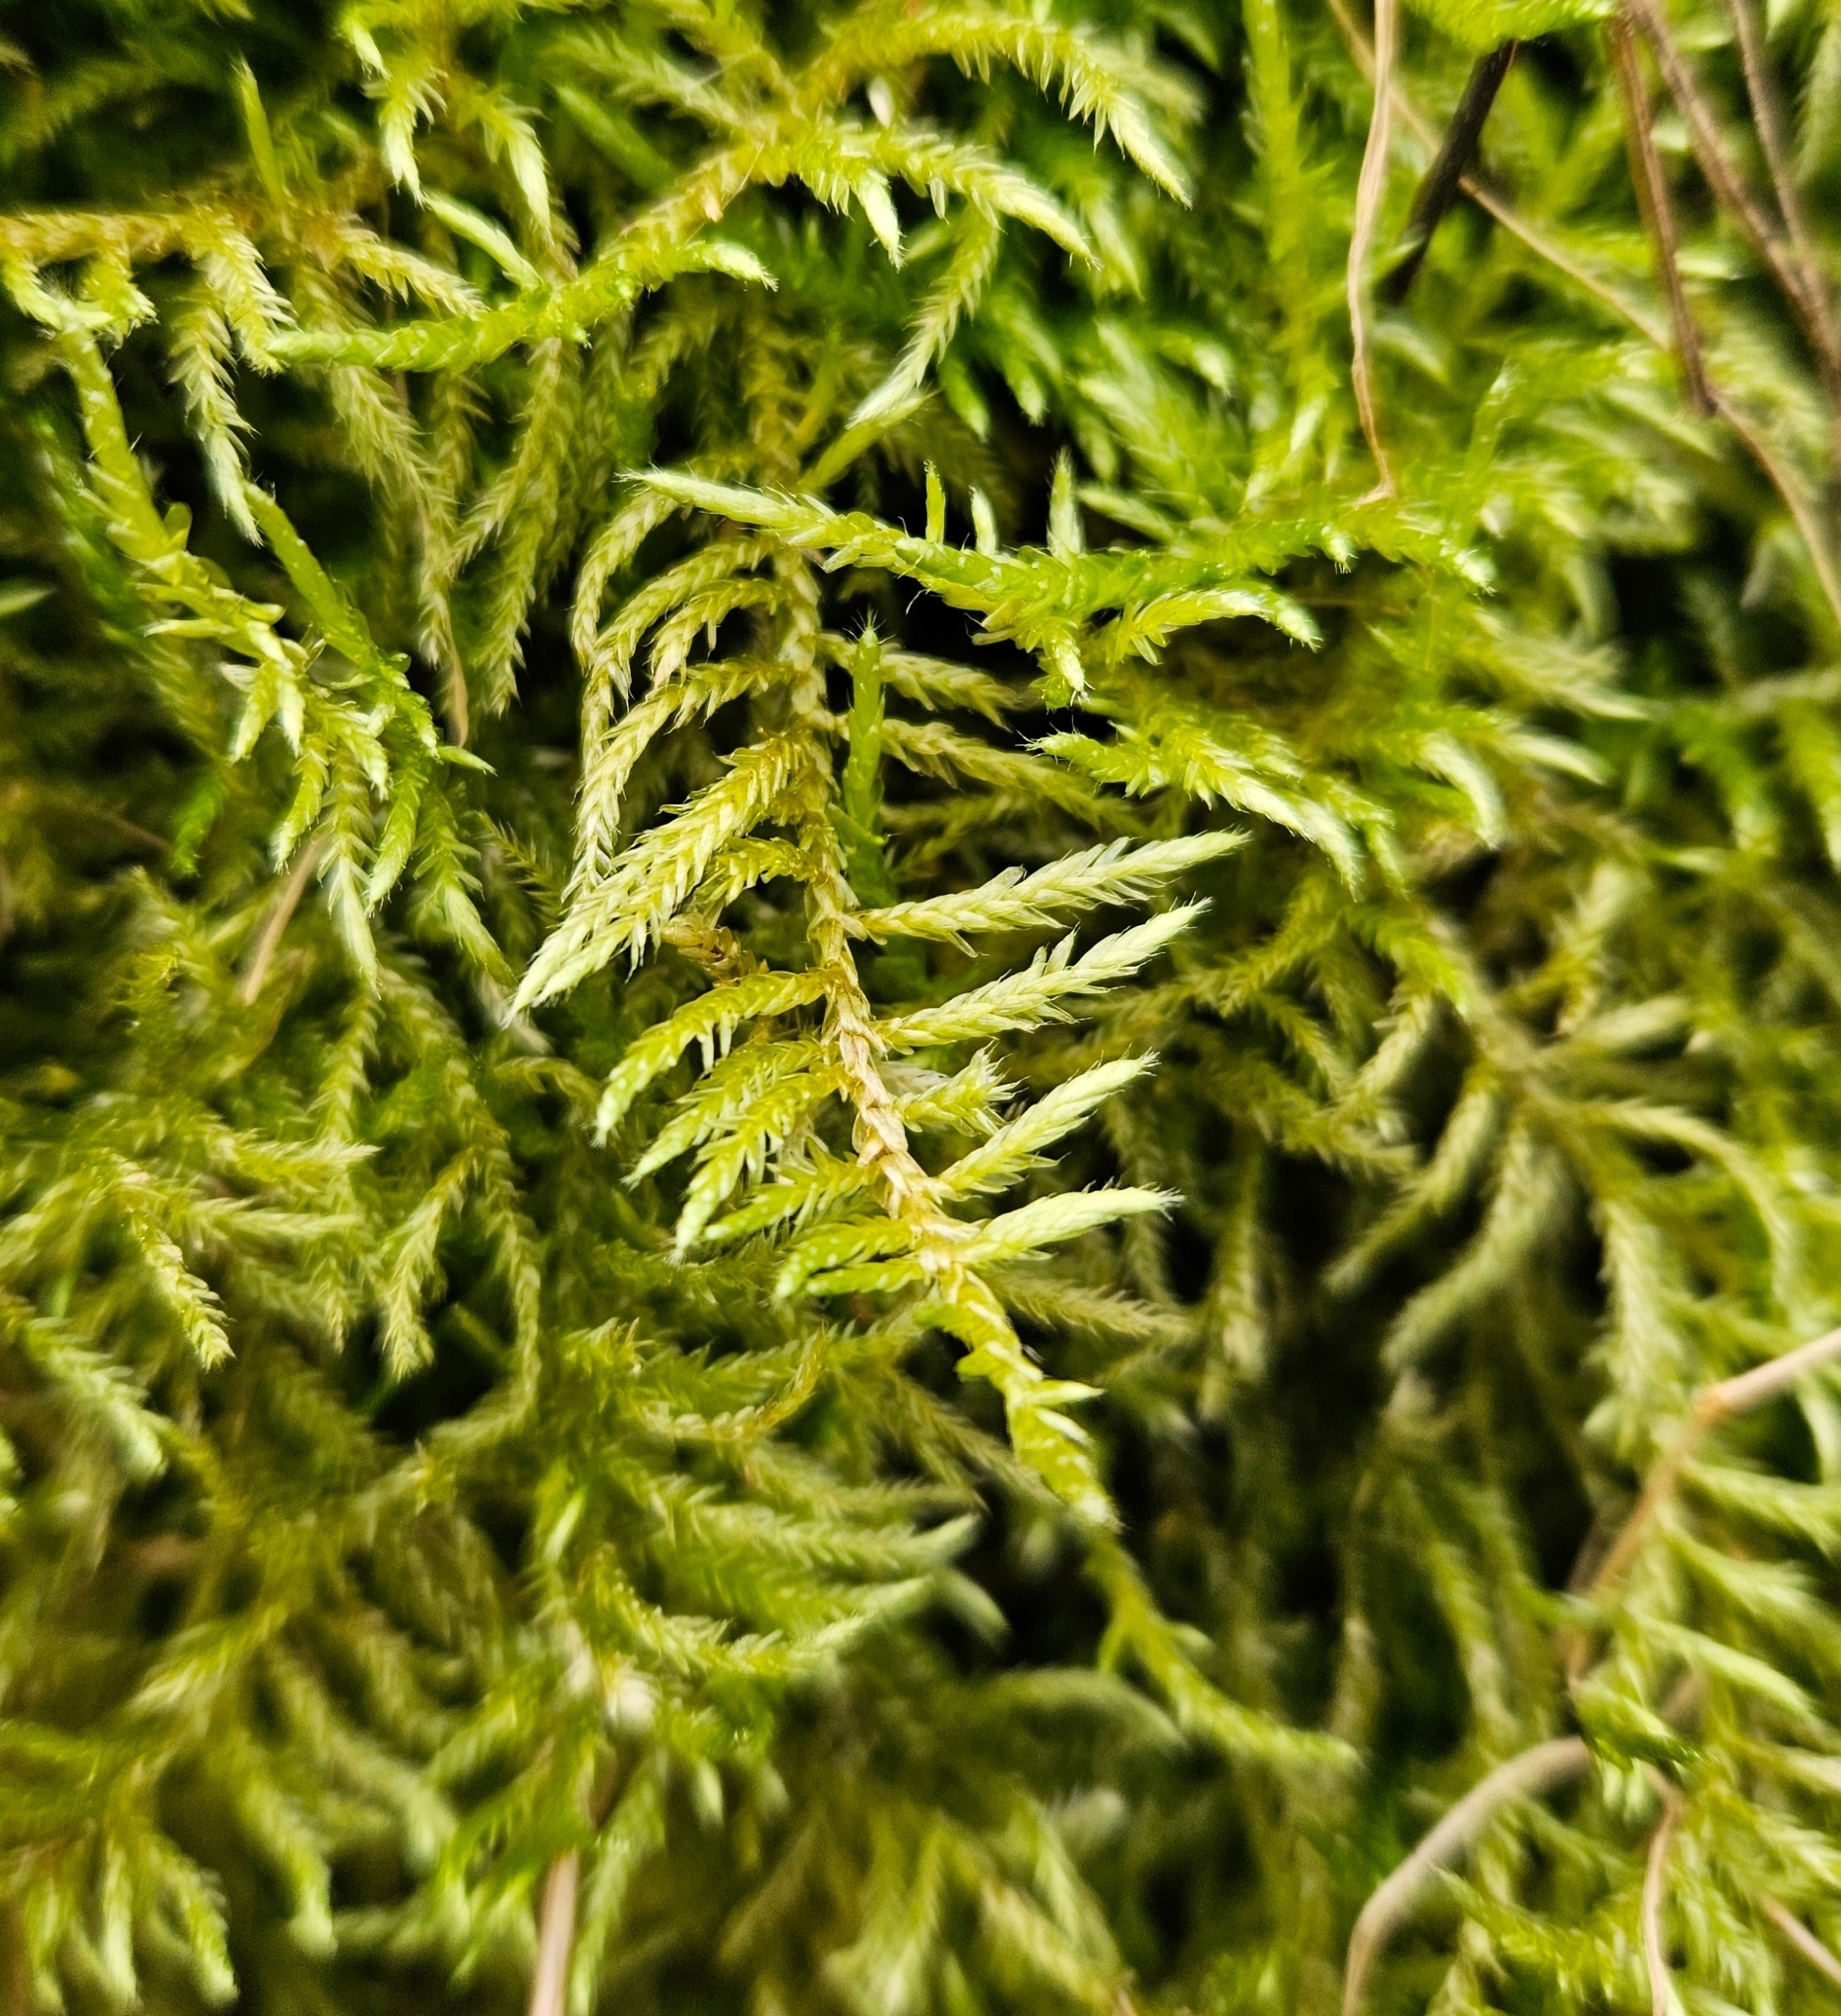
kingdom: Plantae
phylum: Bryophyta
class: Bryopsida
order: Hypnales
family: Brachytheciaceae
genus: Cirriphyllum
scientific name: Cirriphyllum piliferum
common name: Hair-pointed moss
